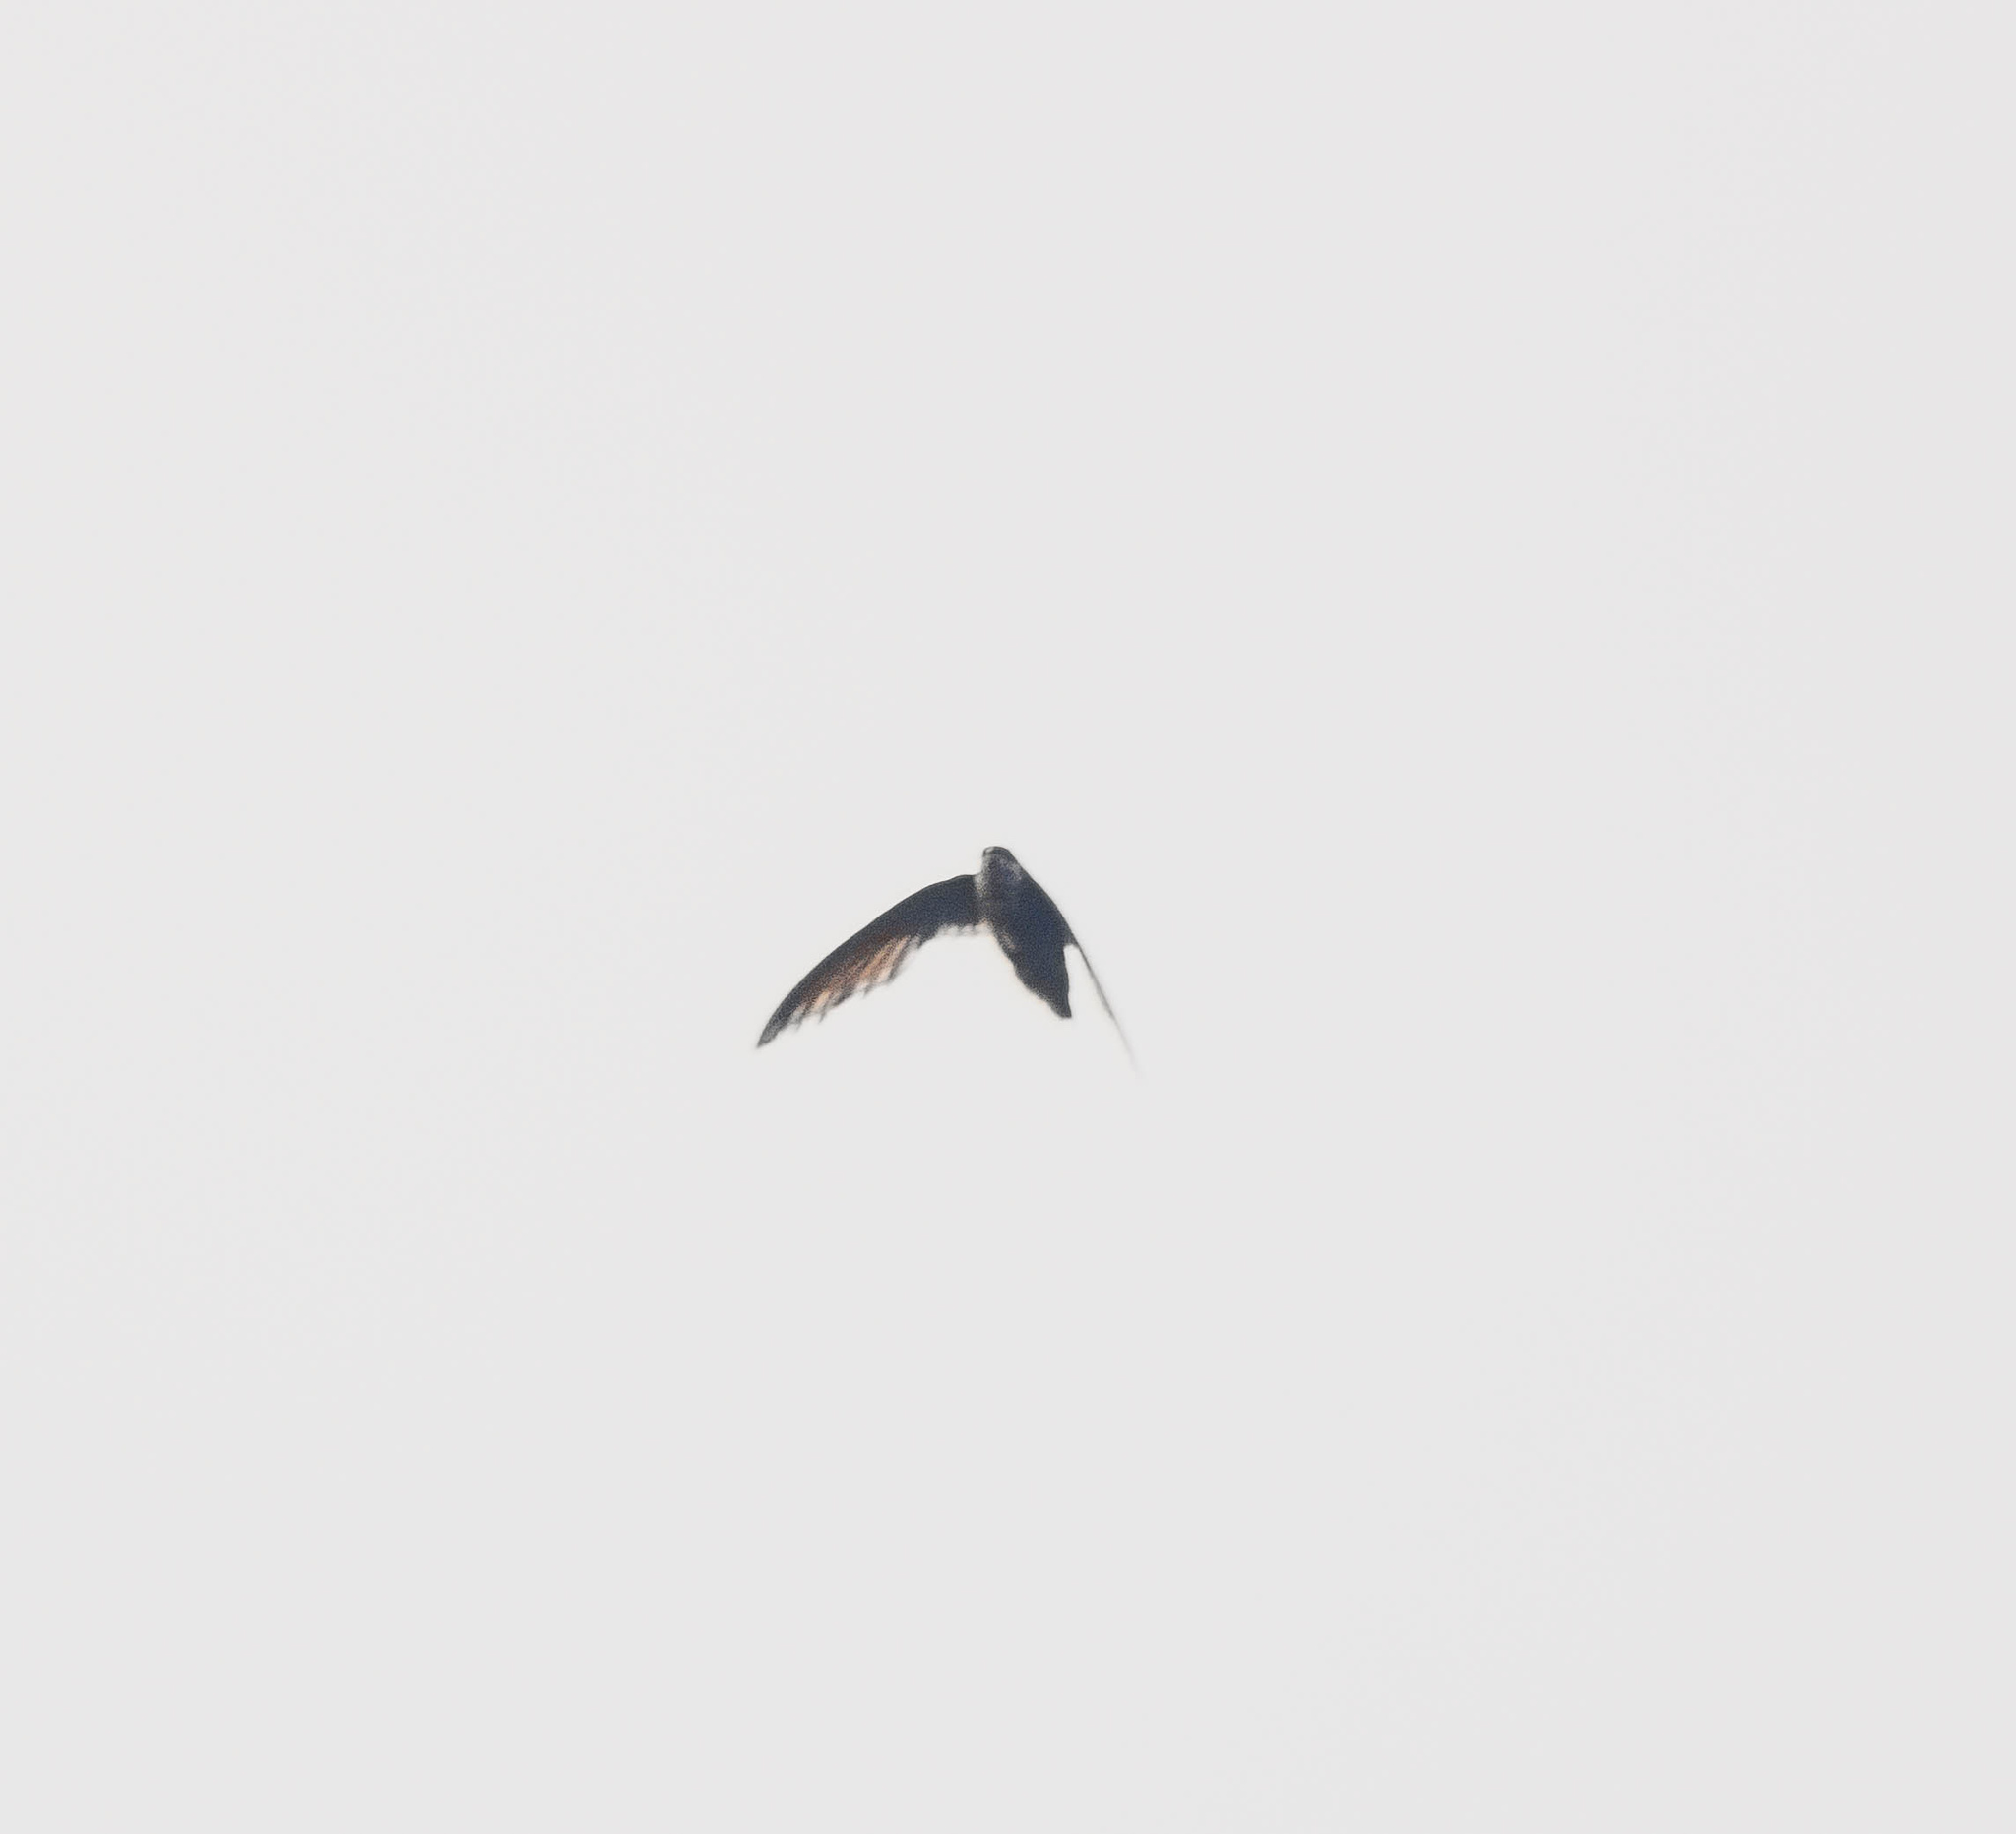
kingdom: Animalia
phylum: Chordata
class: Aves
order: Apodiformes
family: Apodidae
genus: Chaetura
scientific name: Chaetura pelagica
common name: Chimney swift
